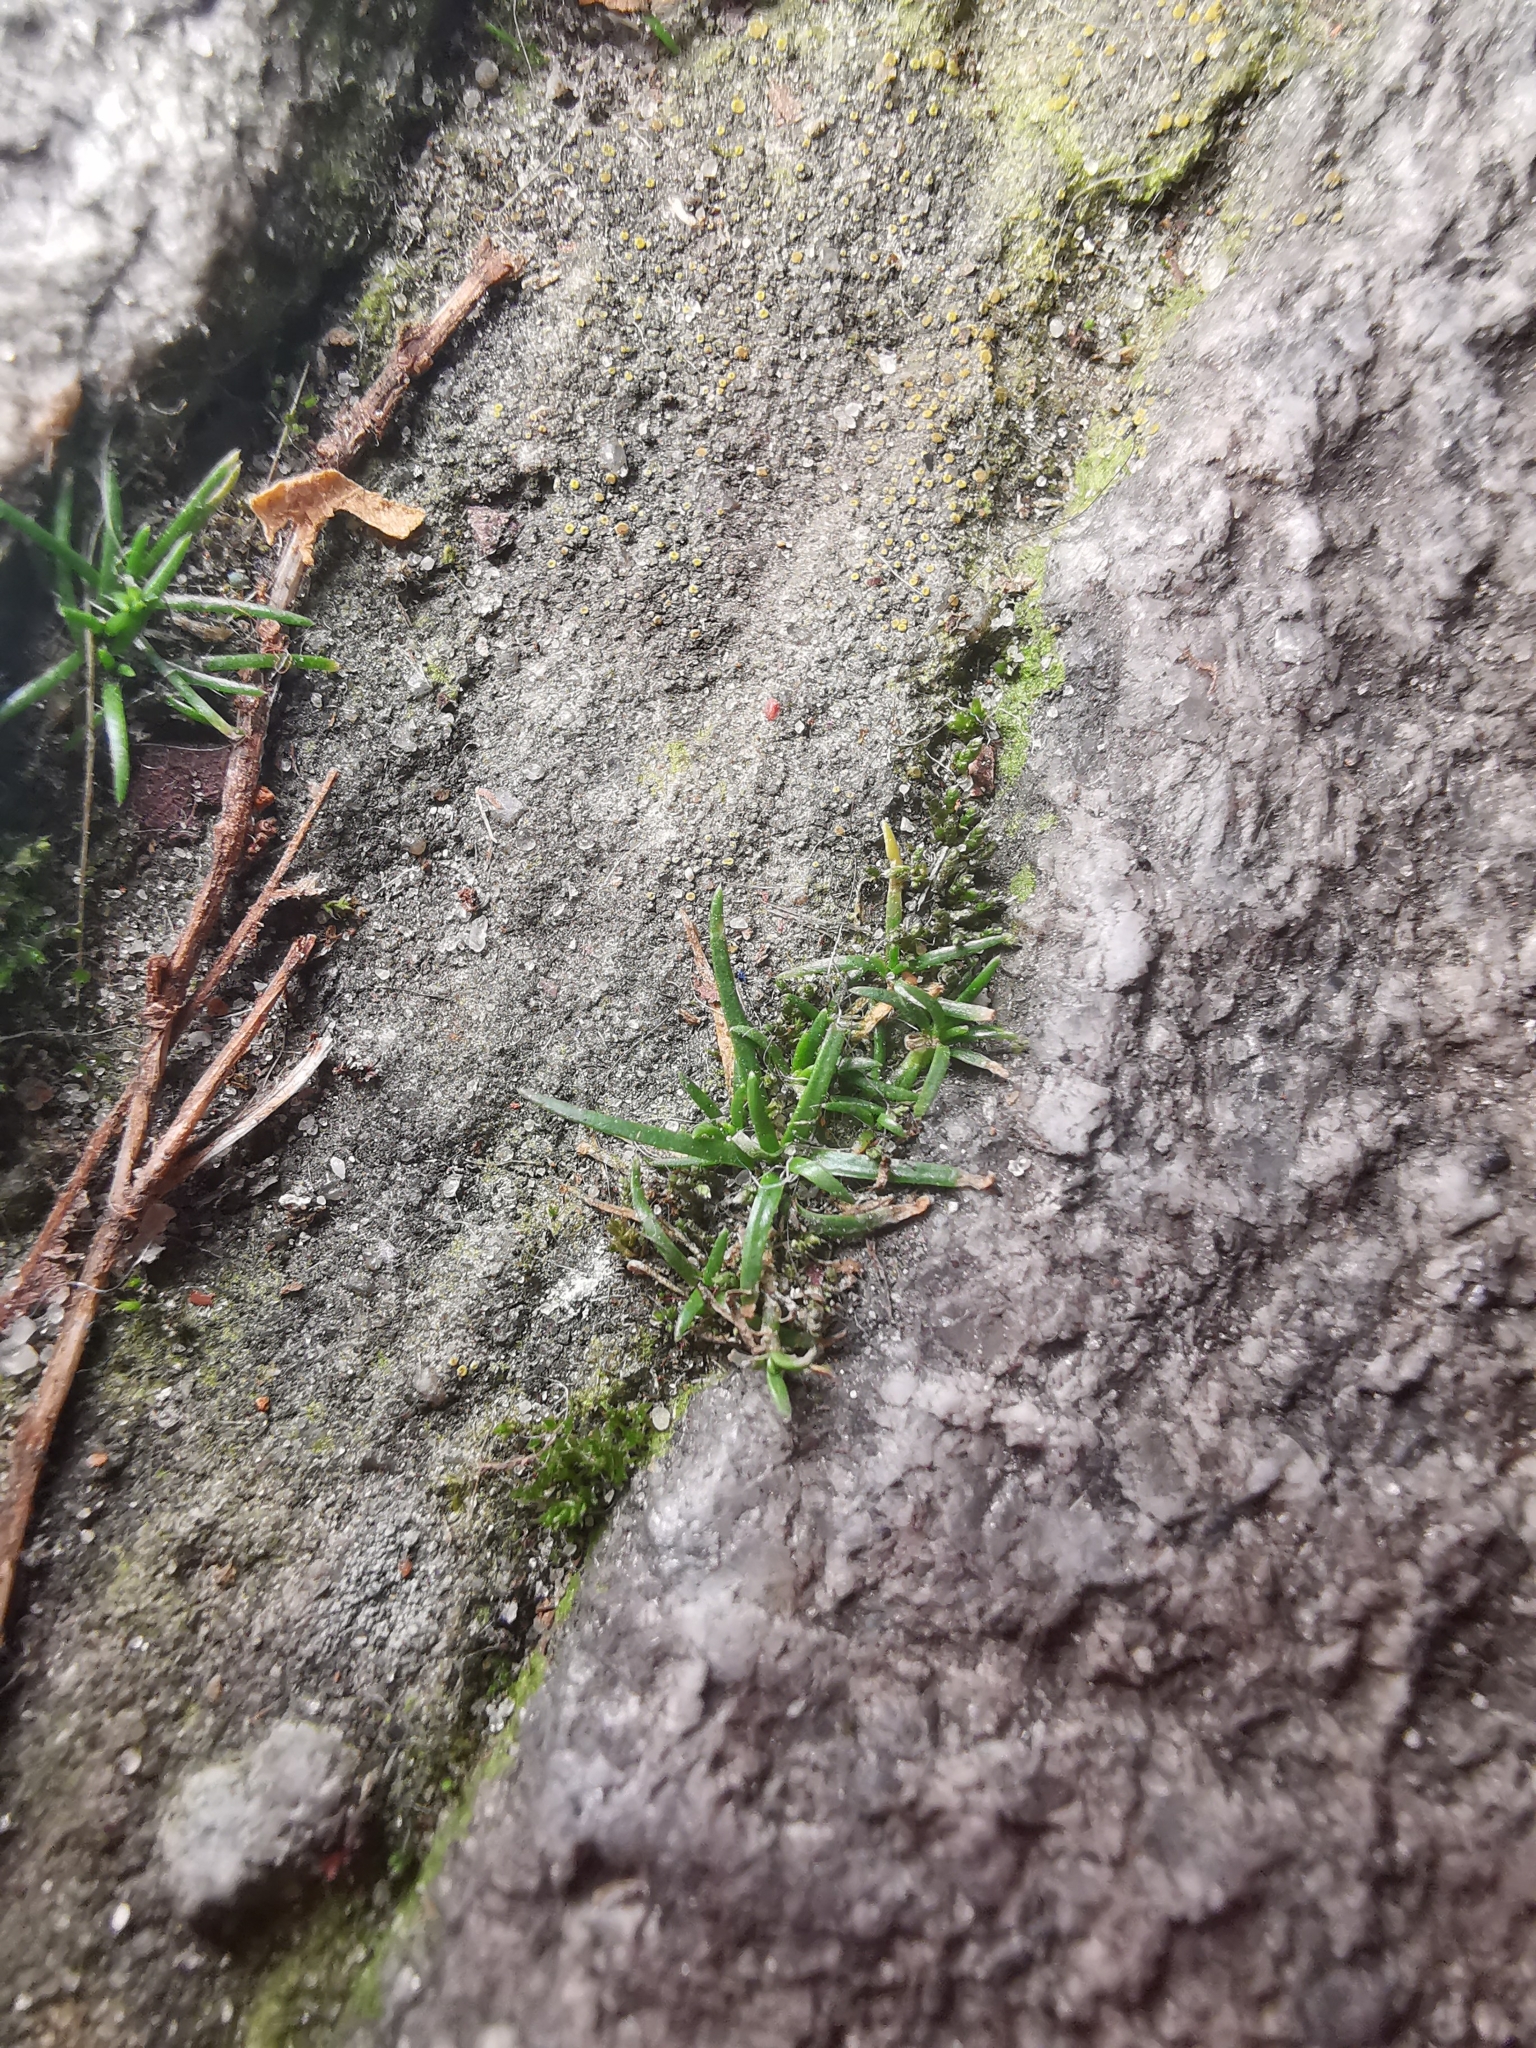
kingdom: Plantae
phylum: Tracheophyta
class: Magnoliopsida
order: Caryophyllales
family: Caryophyllaceae
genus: Sagina
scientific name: Sagina procumbens
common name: Procumbent pearlwort
